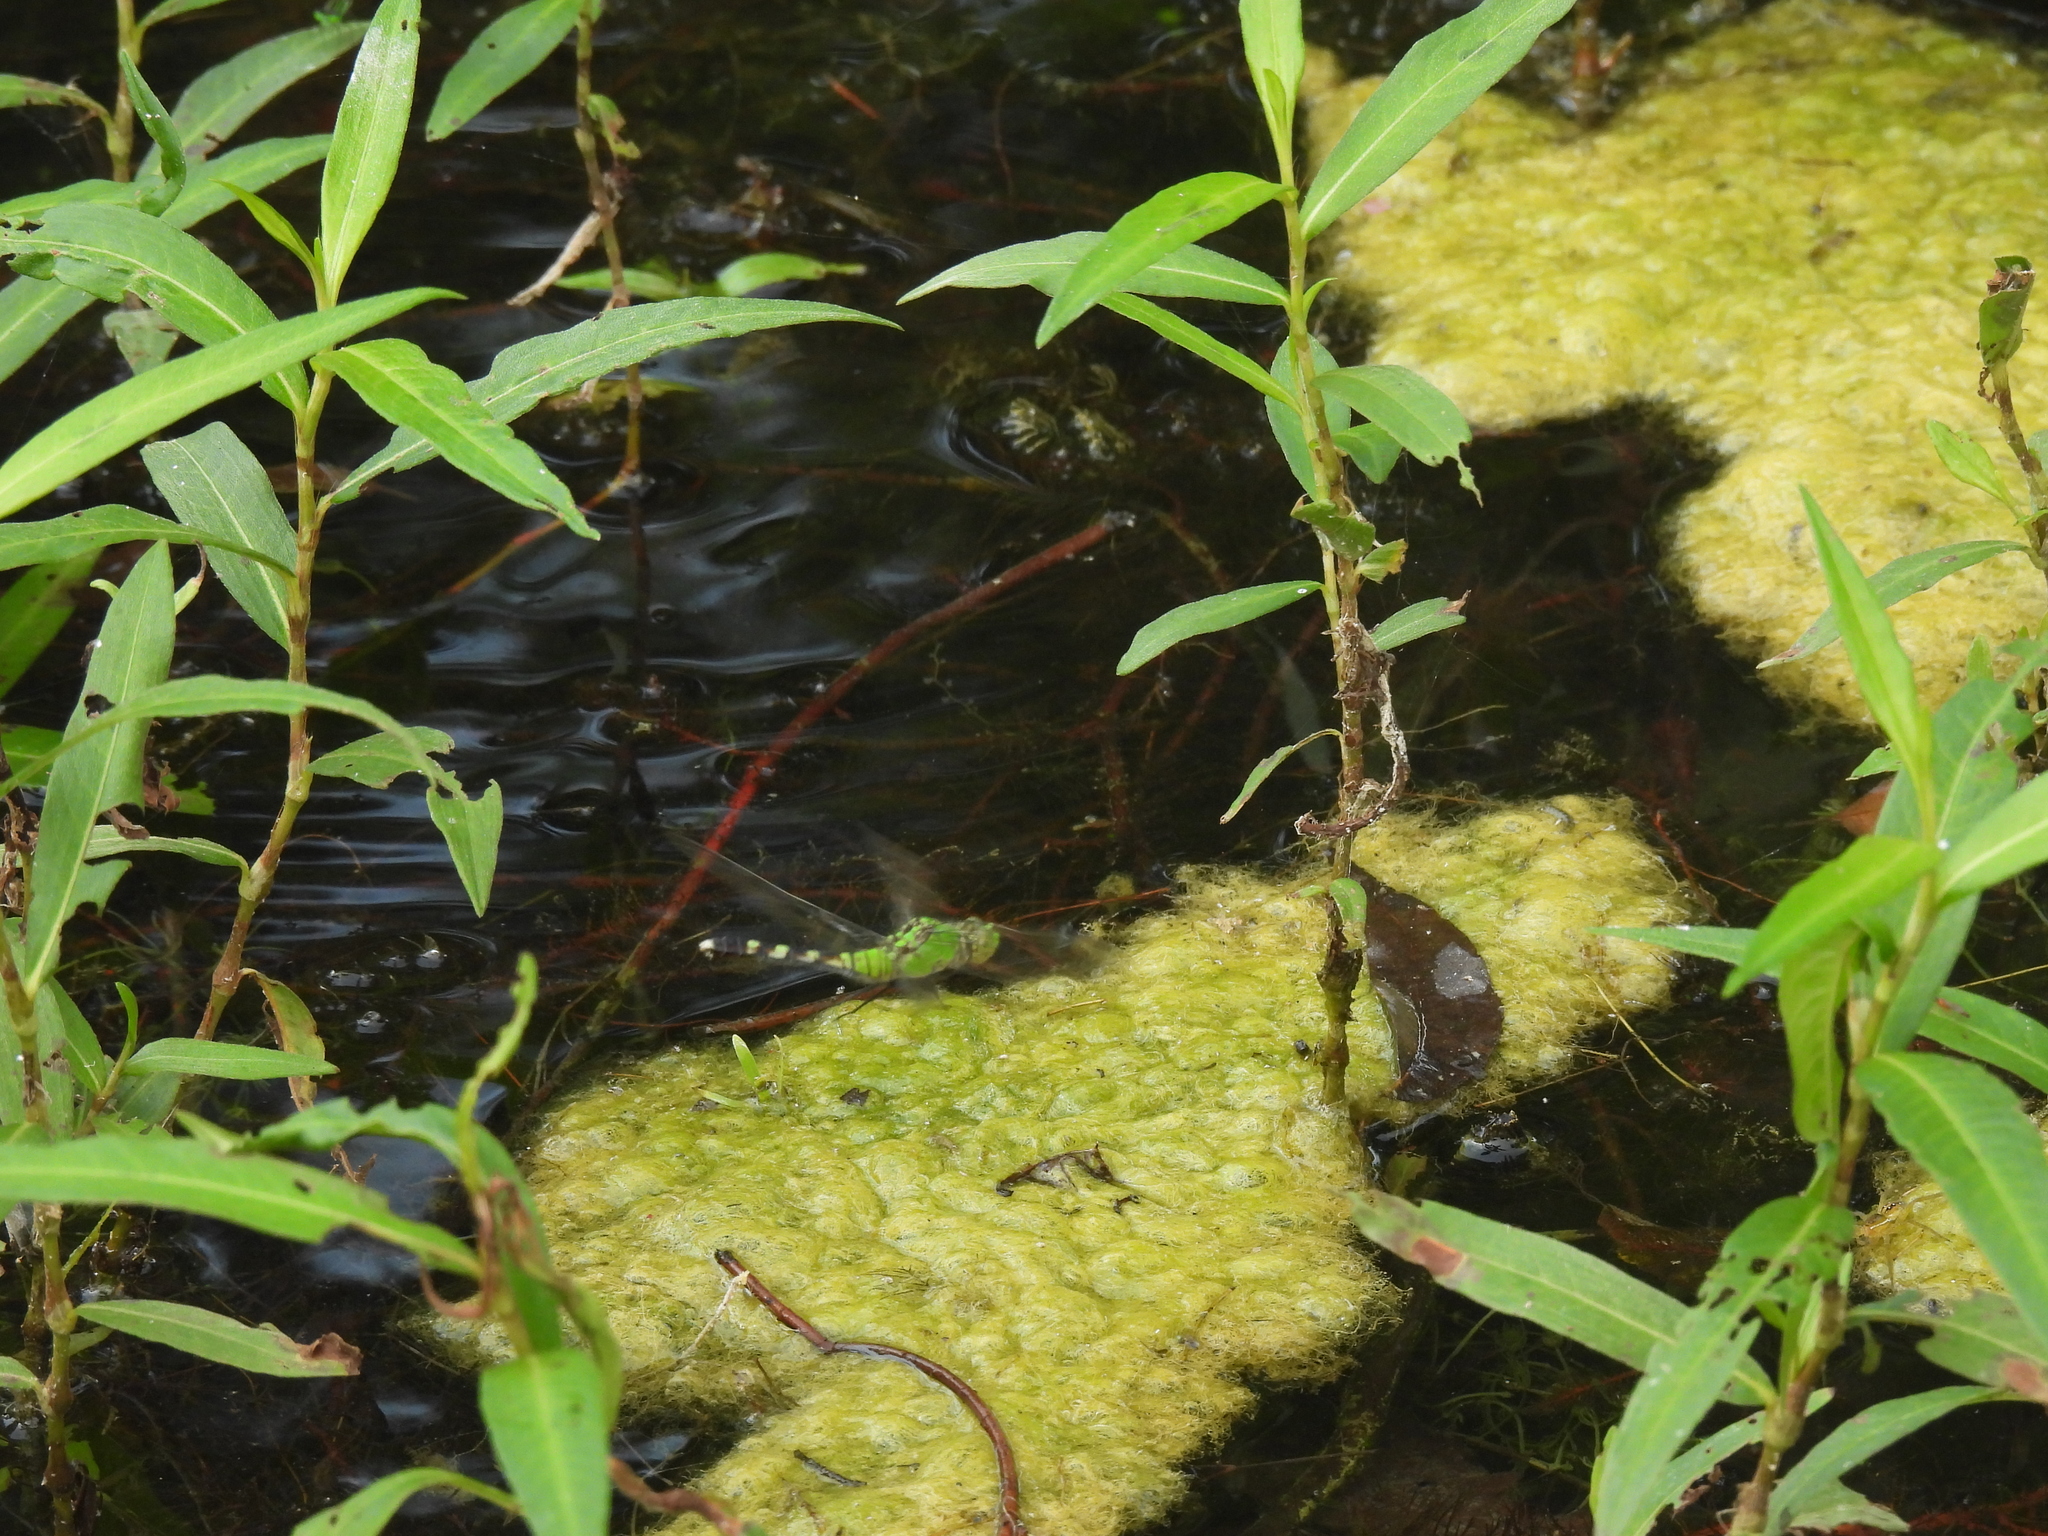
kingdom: Animalia
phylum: Arthropoda
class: Insecta
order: Odonata
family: Libellulidae
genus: Erythemis
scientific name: Erythemis simplicicollis
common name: Eastern pondhawk
